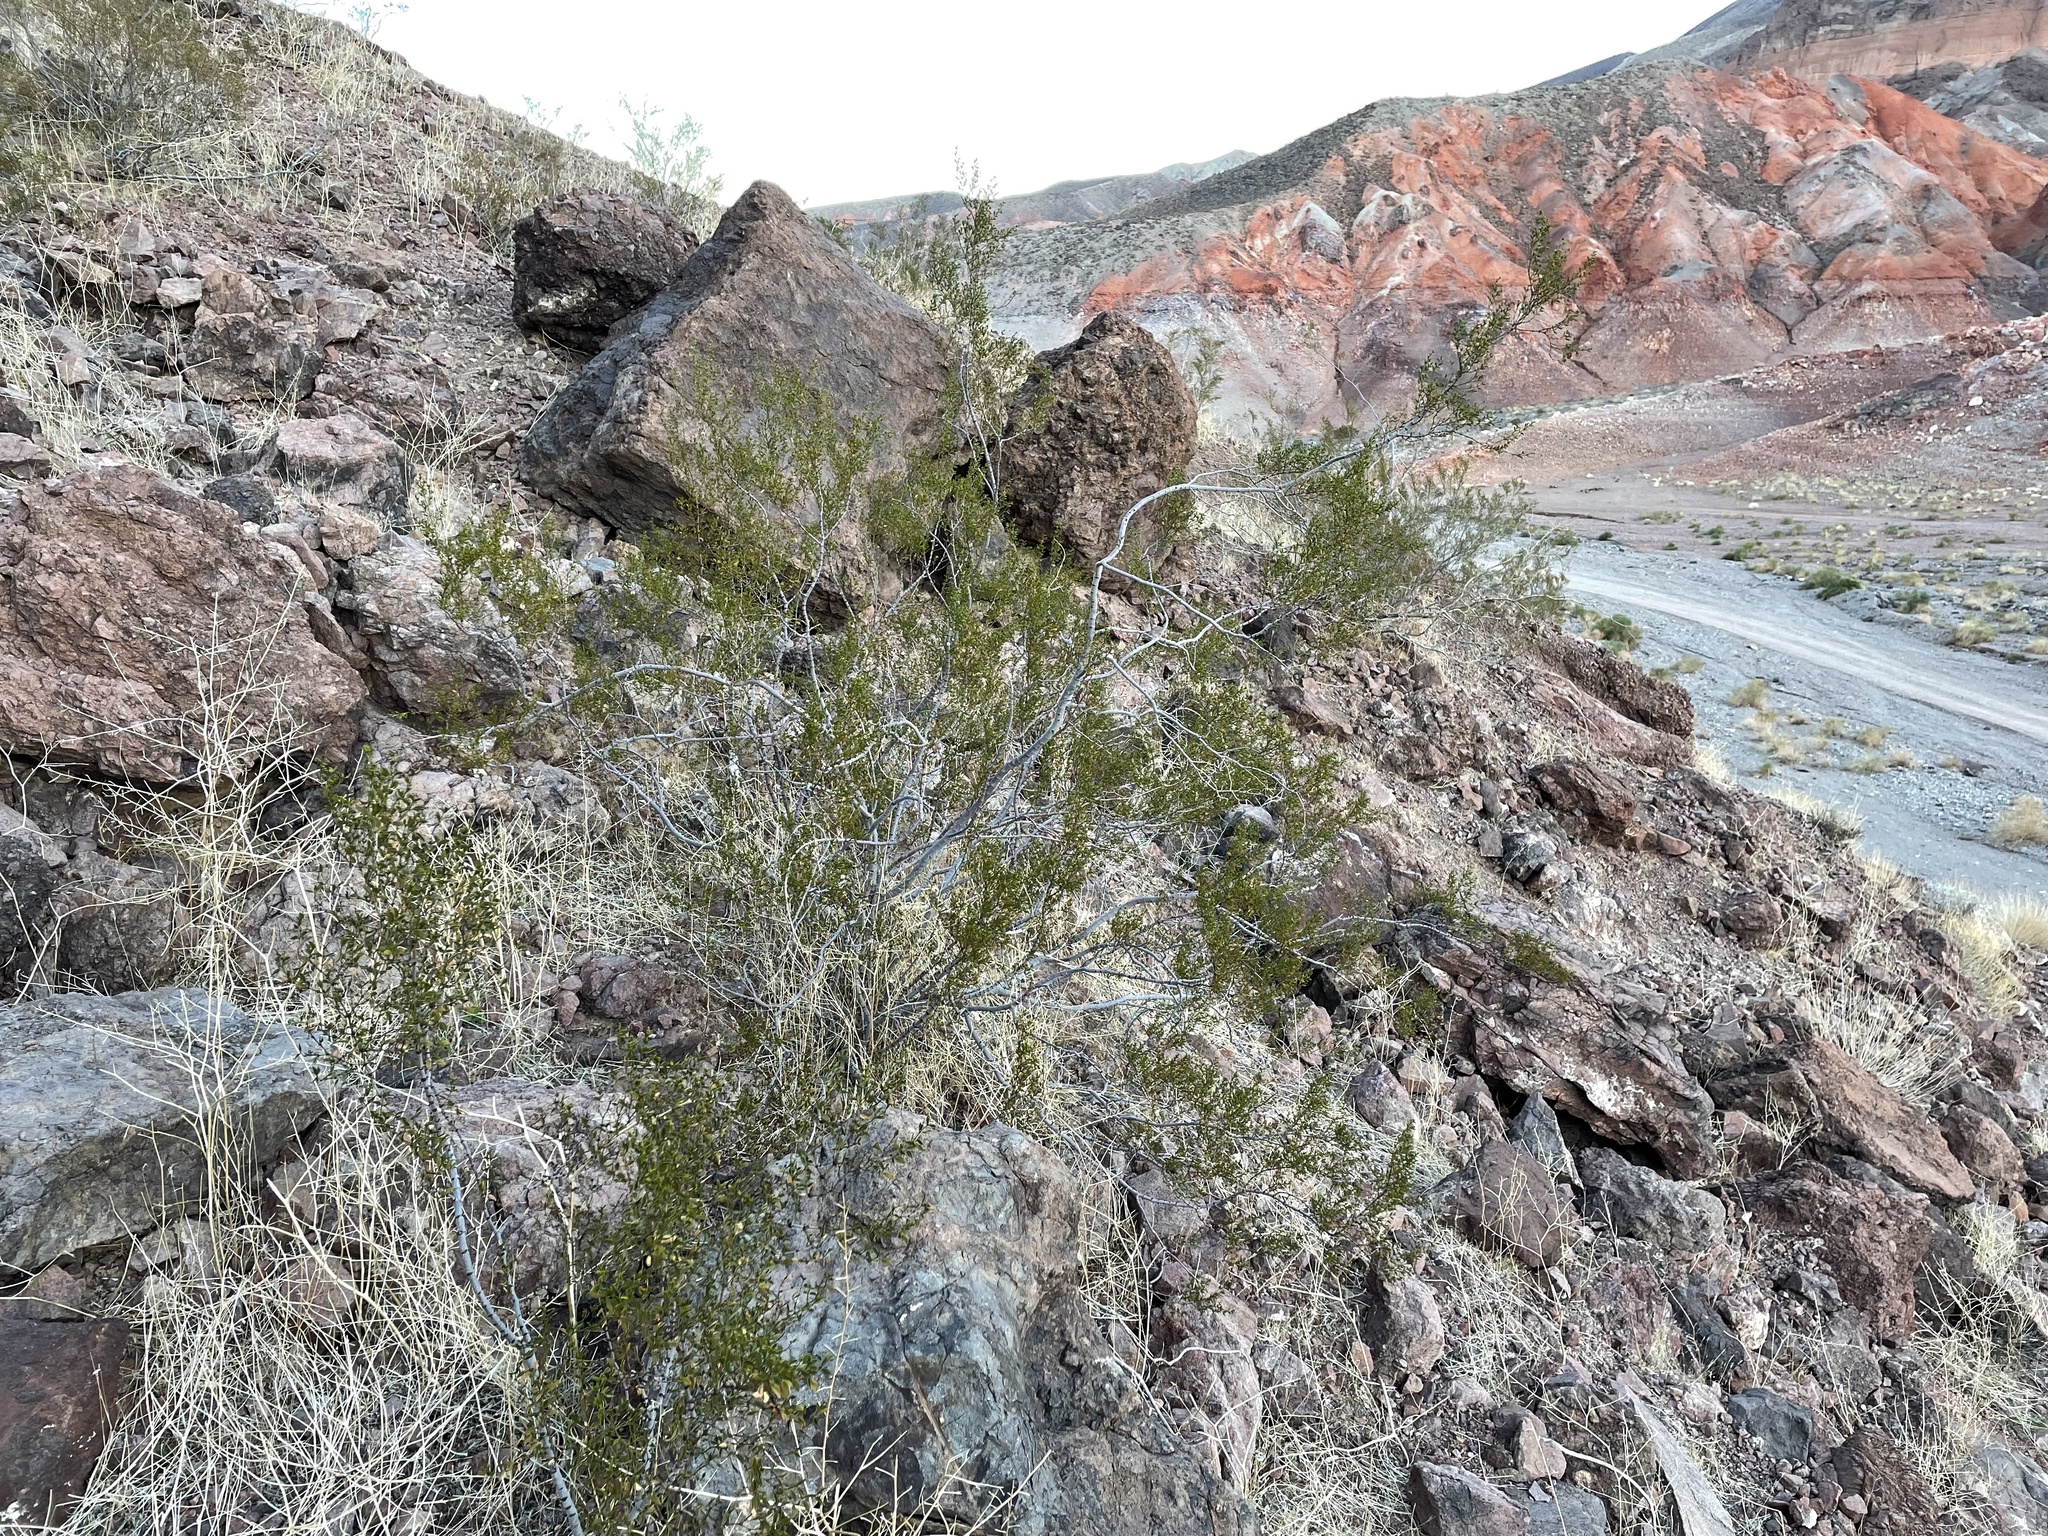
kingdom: Plantae
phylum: Tracheophyta
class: Magnoliopsida
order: Zygophyllales
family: Zygophyllaceae
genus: Larrea
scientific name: Larrea tridentata
